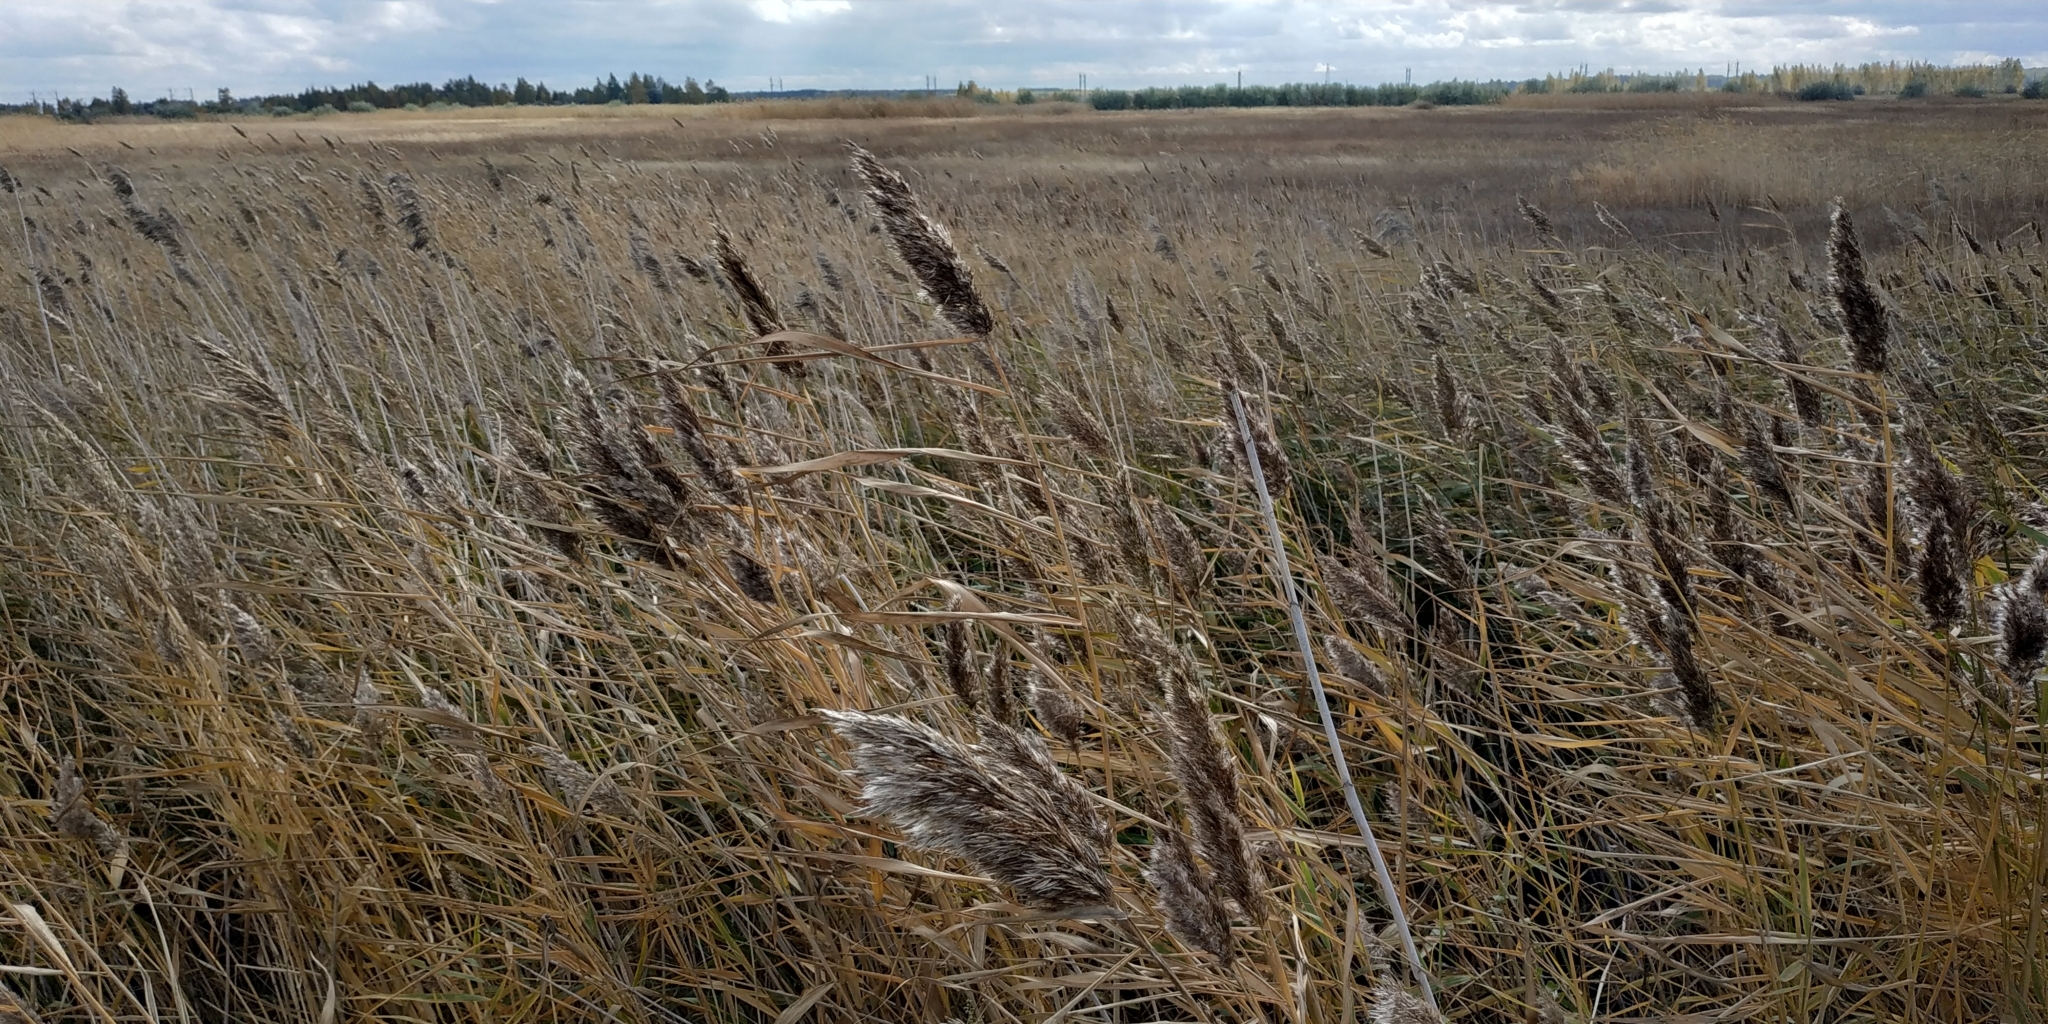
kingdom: Plantae
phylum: Tracheophyta
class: Liliopsida
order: Poales
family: Poaceae
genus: Phragmites
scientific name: Phragmites australis
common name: Common reed
